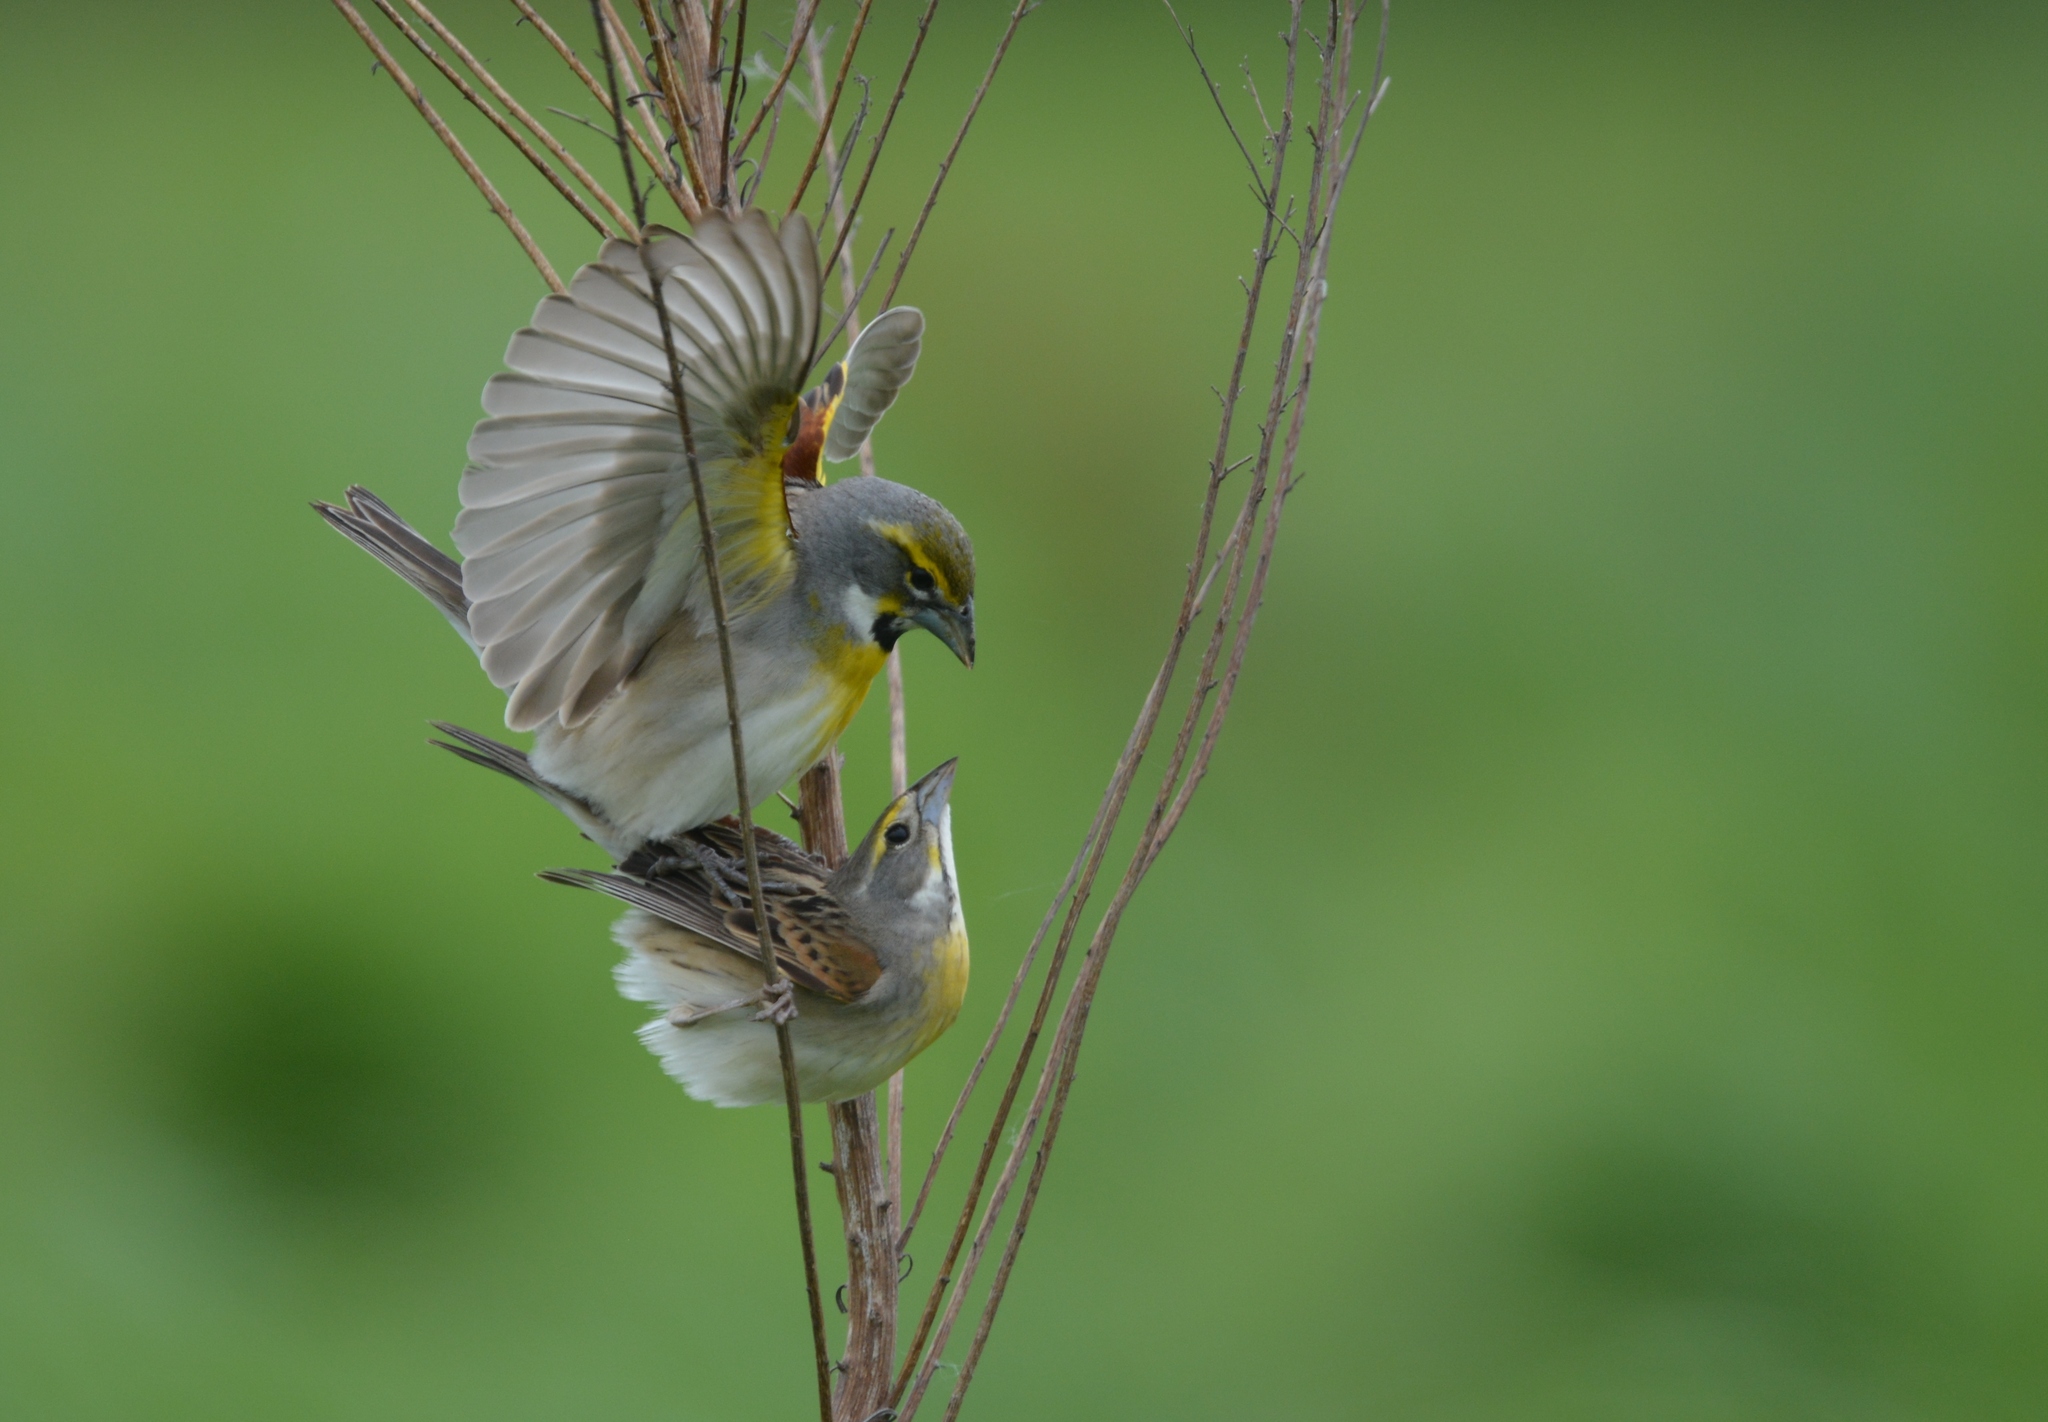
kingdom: Animalia
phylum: Chordata
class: Aves
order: Passeriformes
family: Cardinalidae
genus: Spiza
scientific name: Spiza americana
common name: Dickcissel
